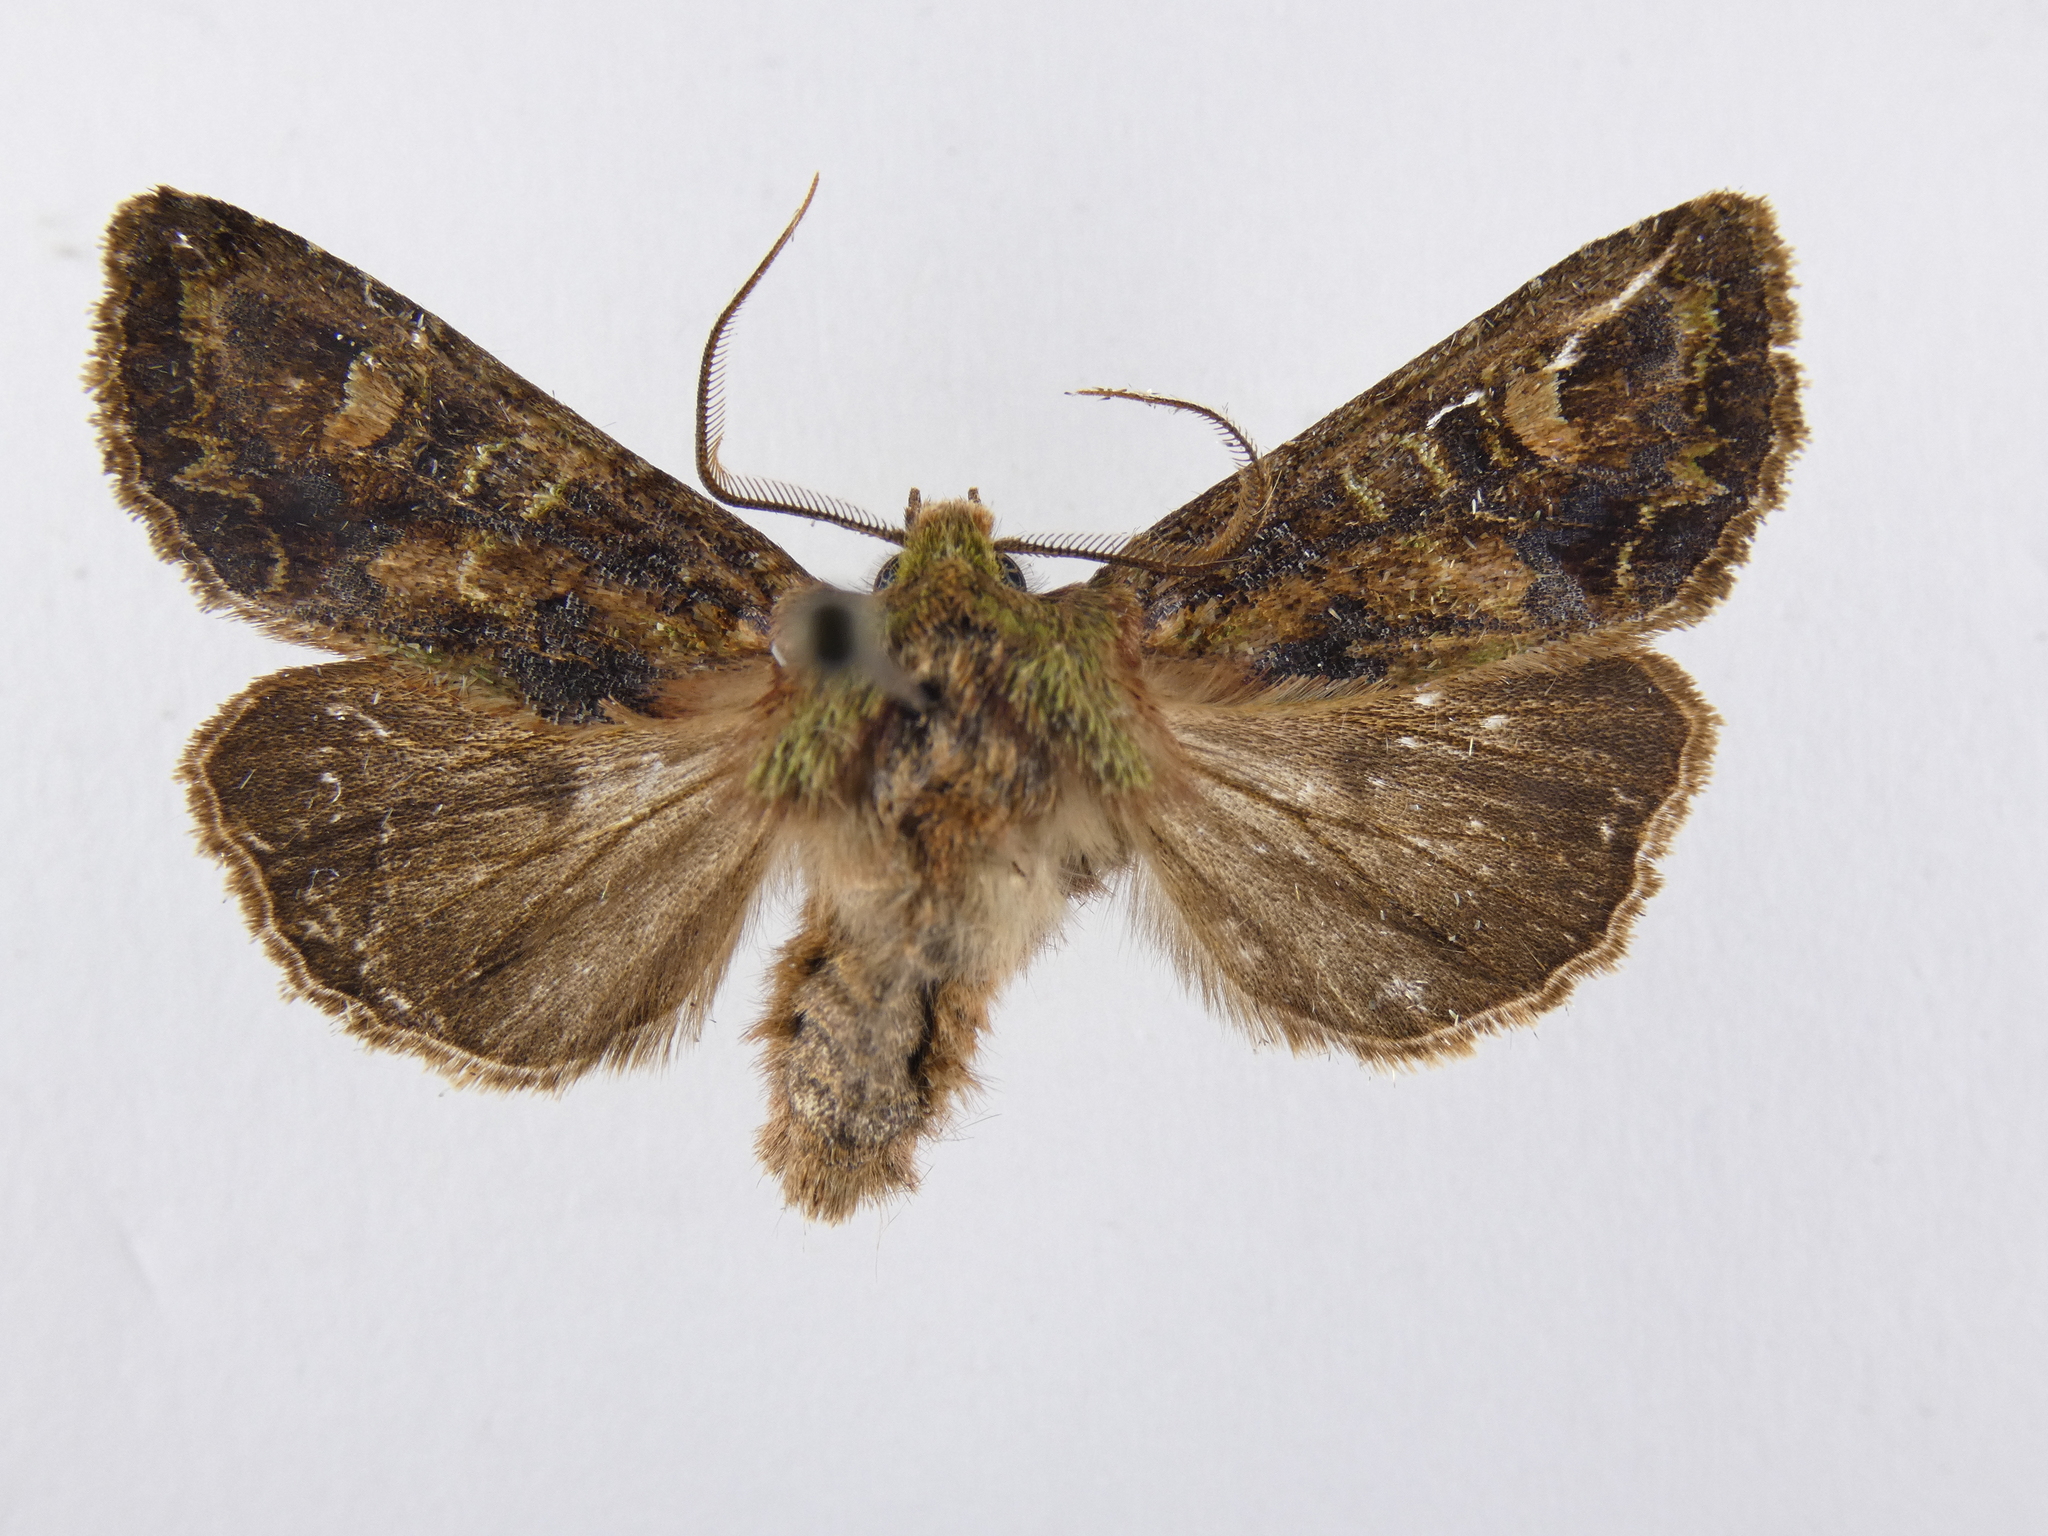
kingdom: Animalia
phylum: Arthropoda
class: Insecta
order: Lepidoptera
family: Noctuidae
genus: Ichneutica
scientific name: Ichneutica insignis
